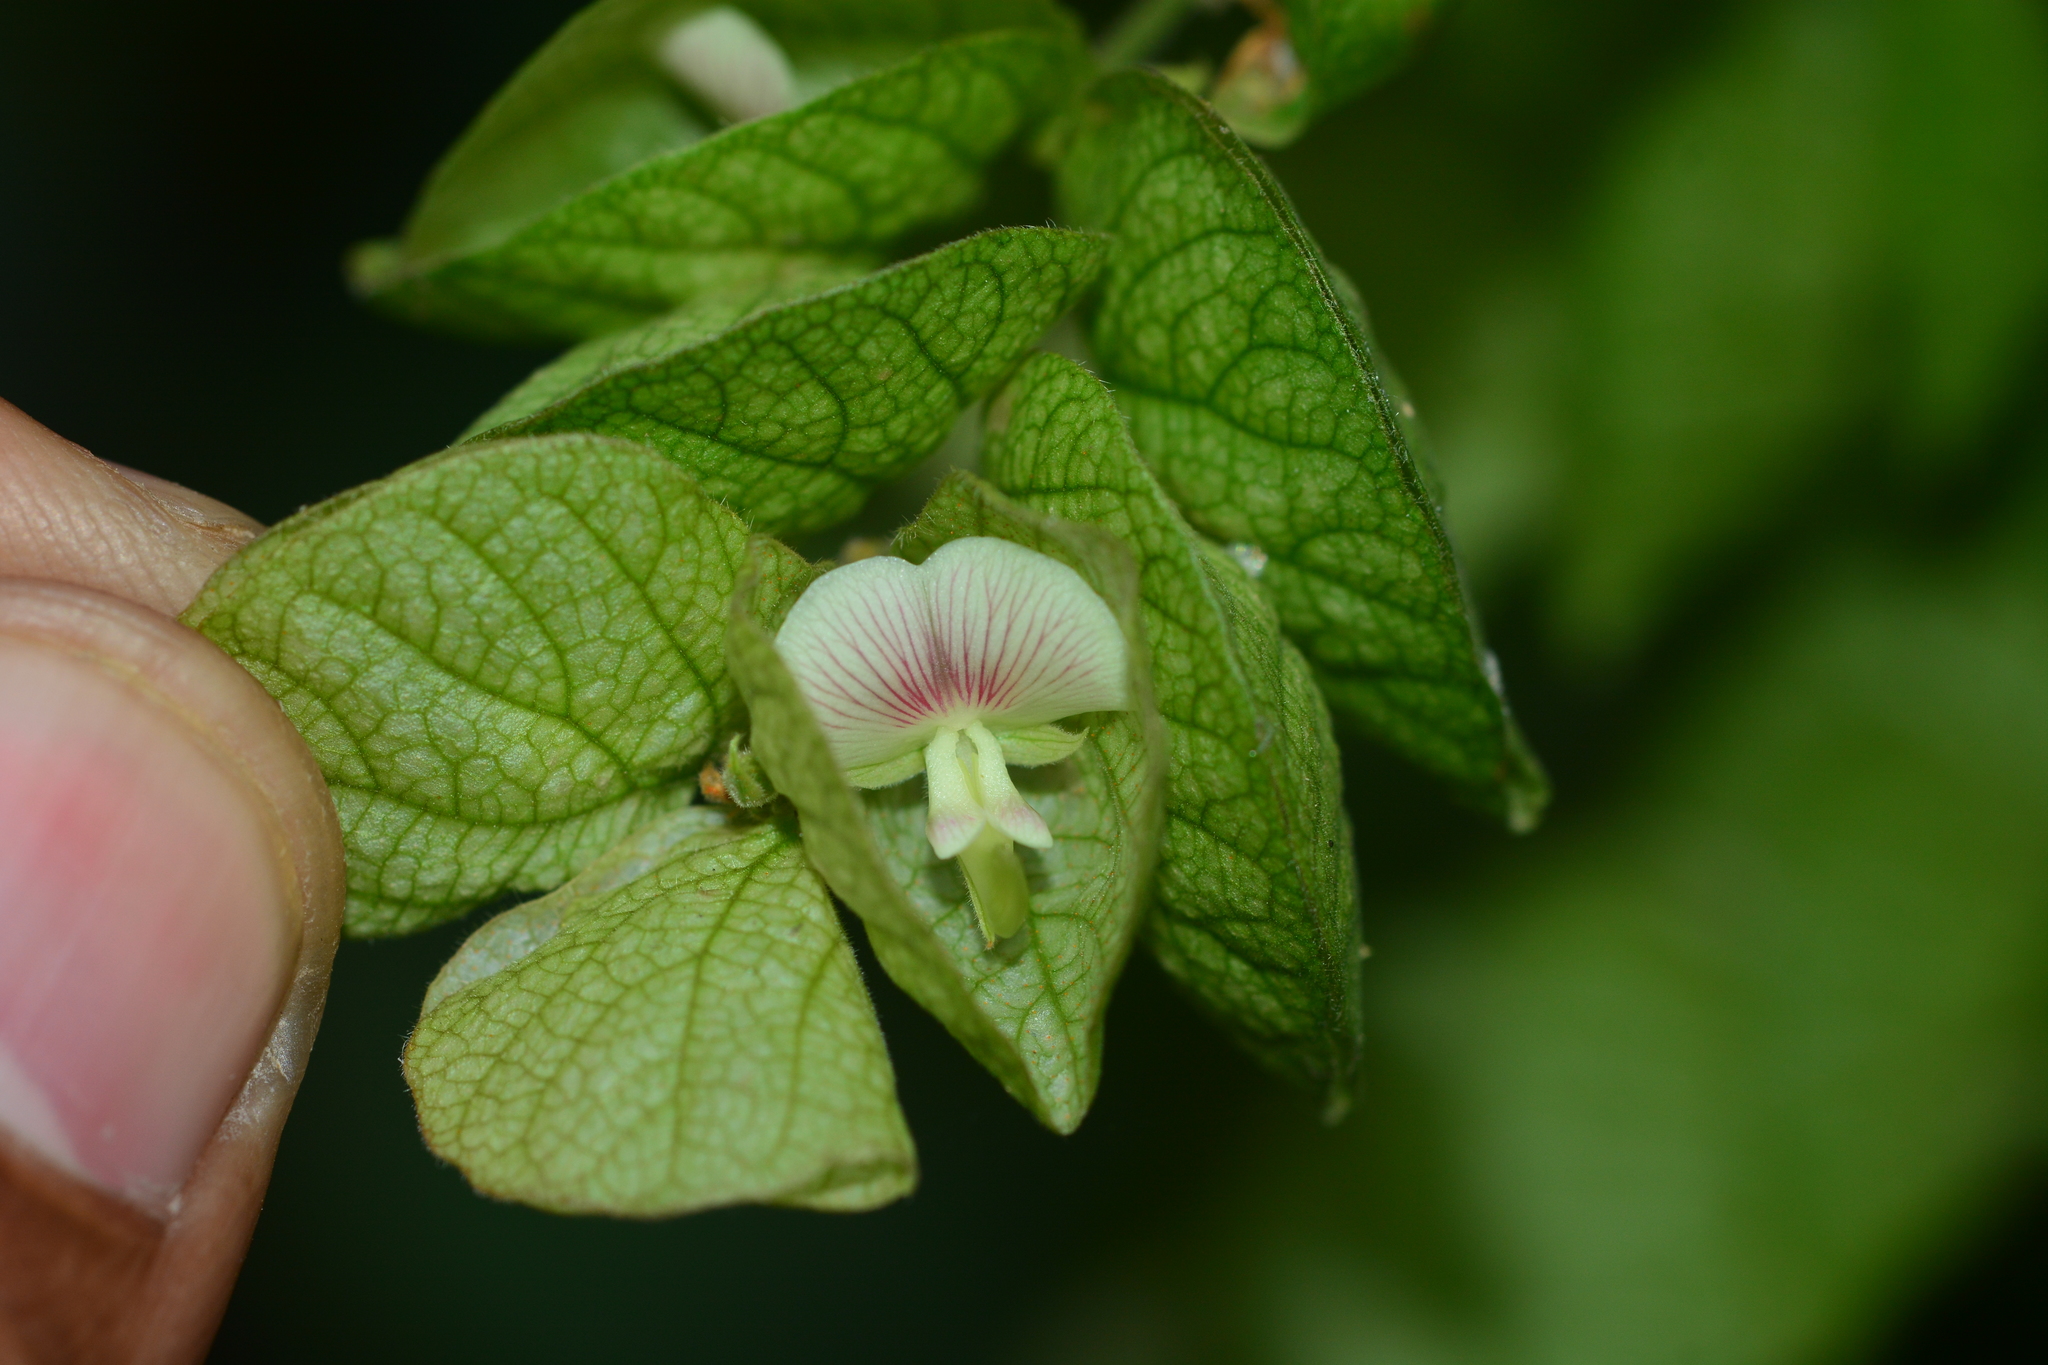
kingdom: Plantae
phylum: Tracheophyta
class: Magnoliopsida
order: Fabales
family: Fabaceae
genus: Flemingia
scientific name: Flemingia strobilifera
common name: Wild hops
